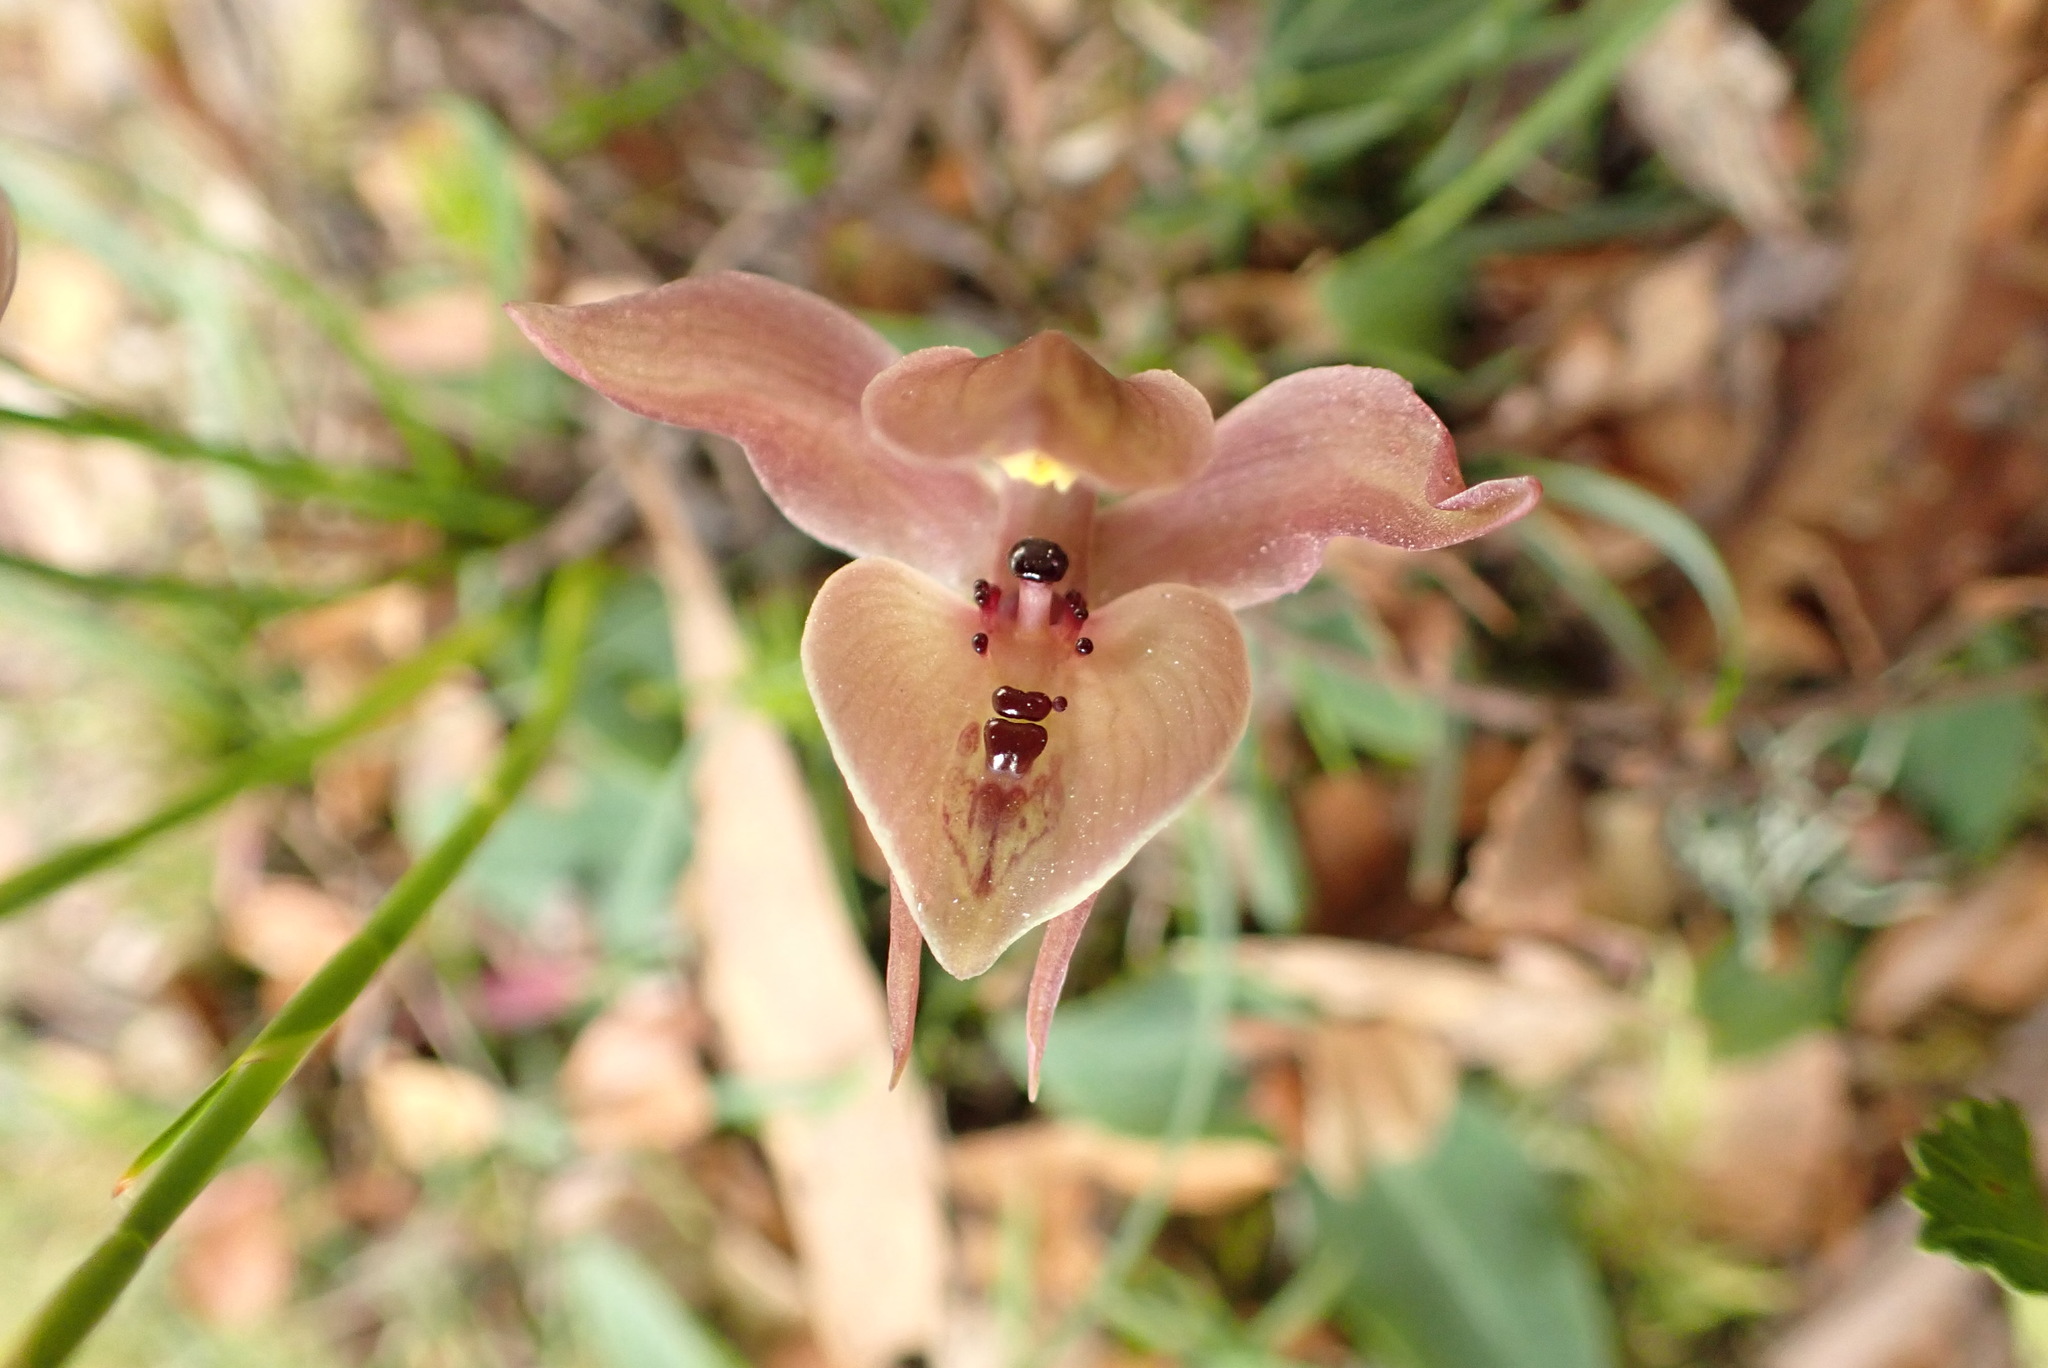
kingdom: Plantae
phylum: Tracheophyta
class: Liliopsida
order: Asparagales
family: Orchidaceae
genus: Chiloglottis
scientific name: Chiloglottis gunnii
